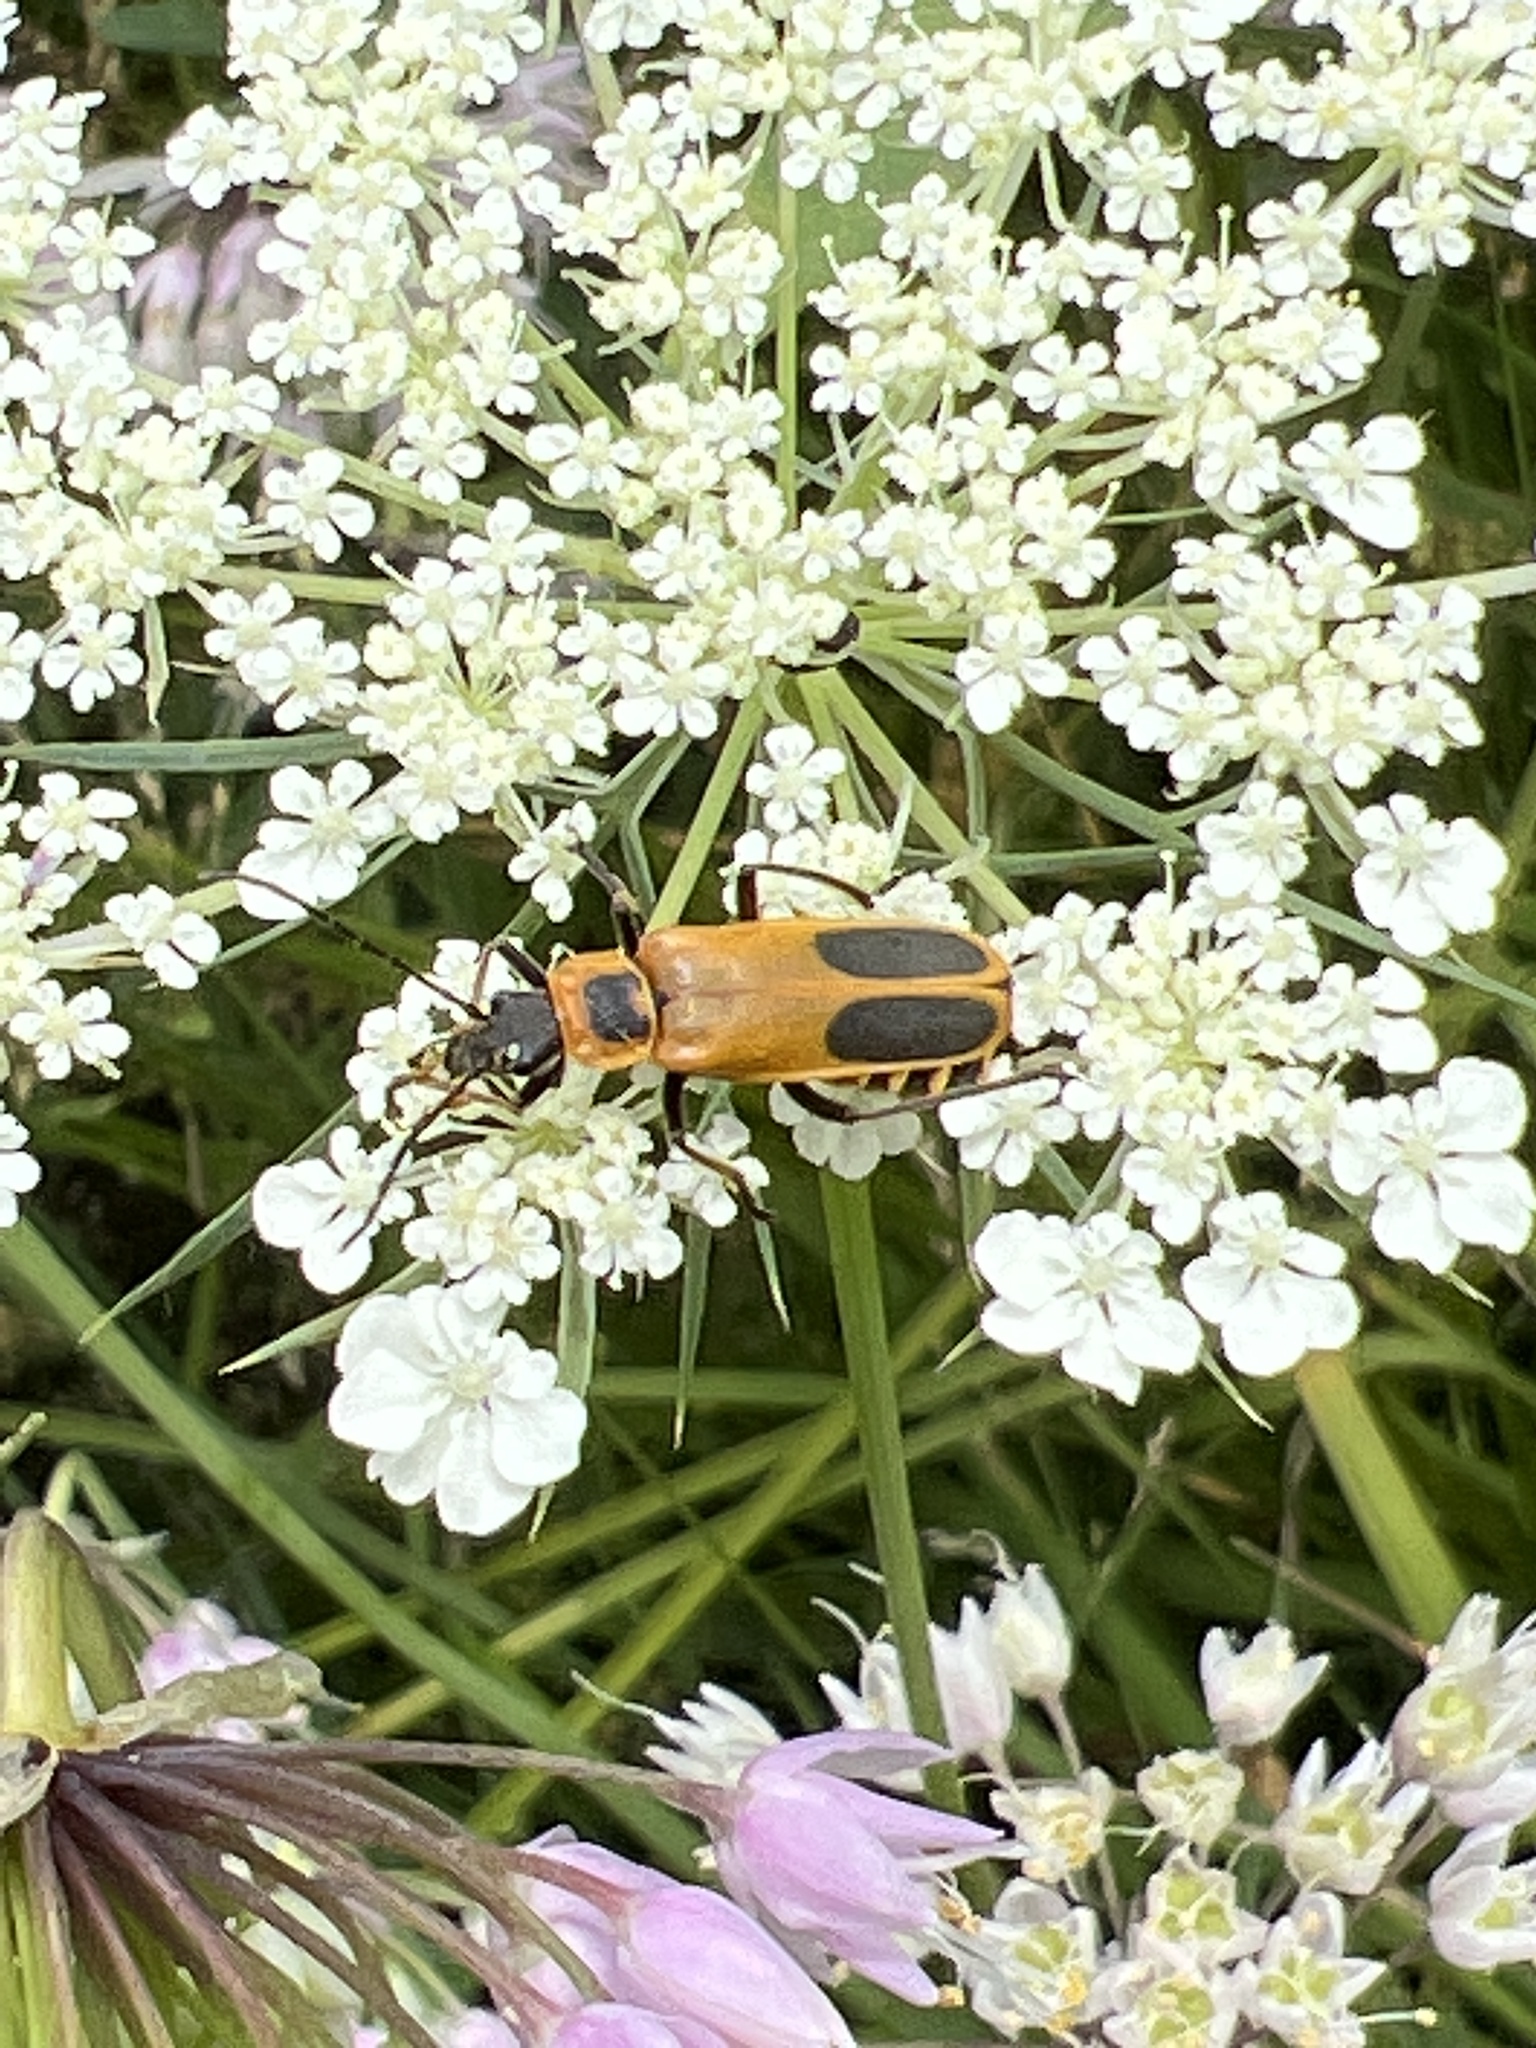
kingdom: Animalia
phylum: Arthropoda
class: Insecta
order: Coleoptera
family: Cantharidae
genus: Chauliognathus
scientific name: Chauliognathus pensylvanicus
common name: Goldenrod soldier beetle
